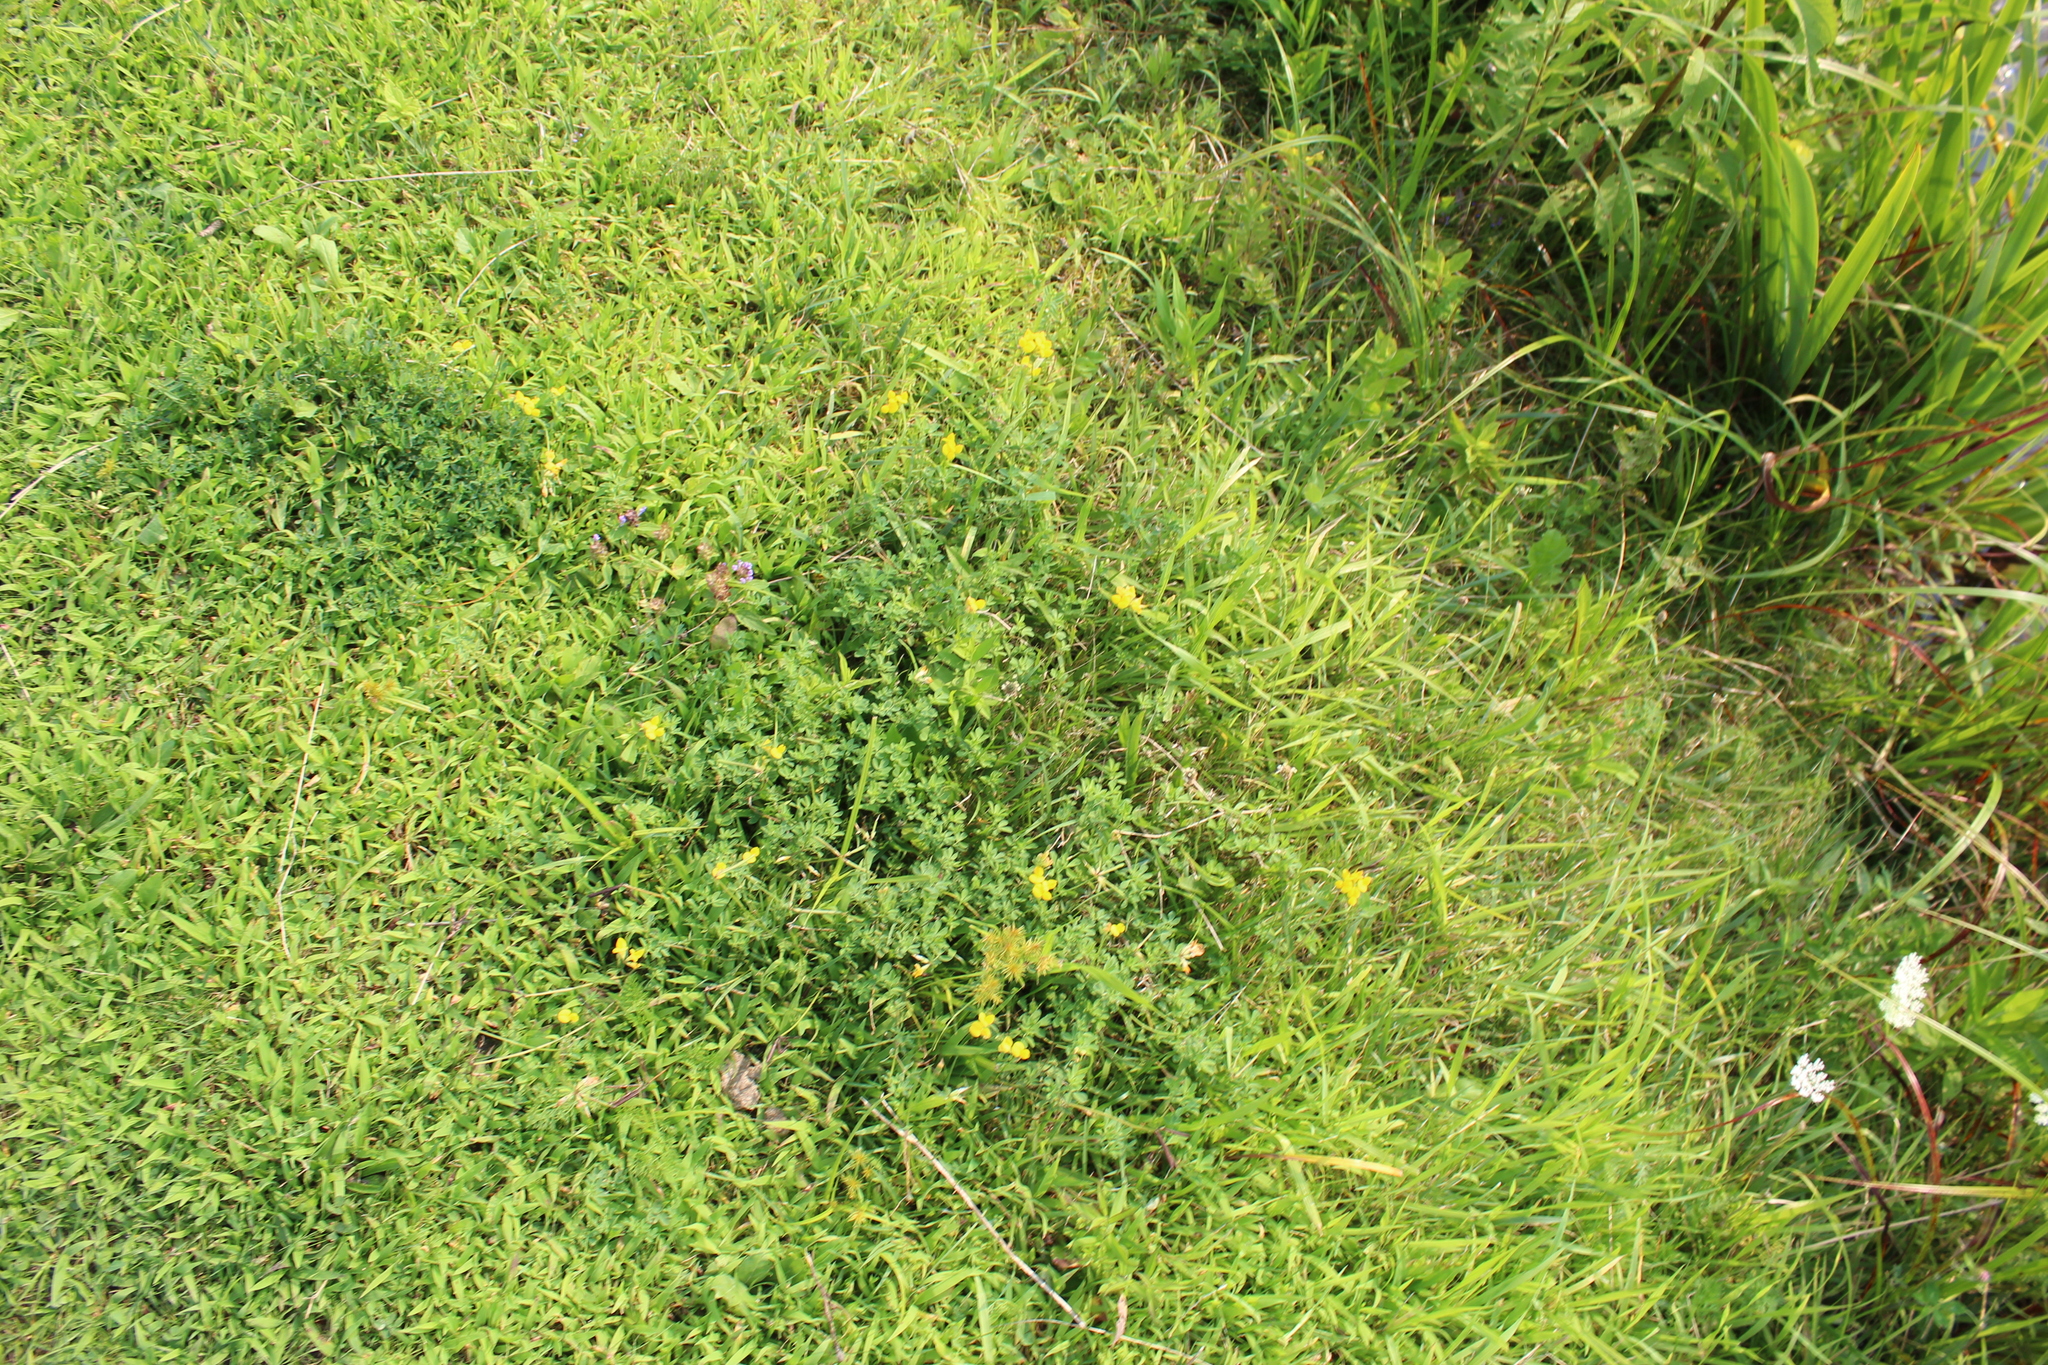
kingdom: Plantae
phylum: Tracheophyta
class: Magnoliopsida
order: Lamiales
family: Lamiaceae
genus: Prunella
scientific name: Prunella vulgaris
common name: Heal-all
